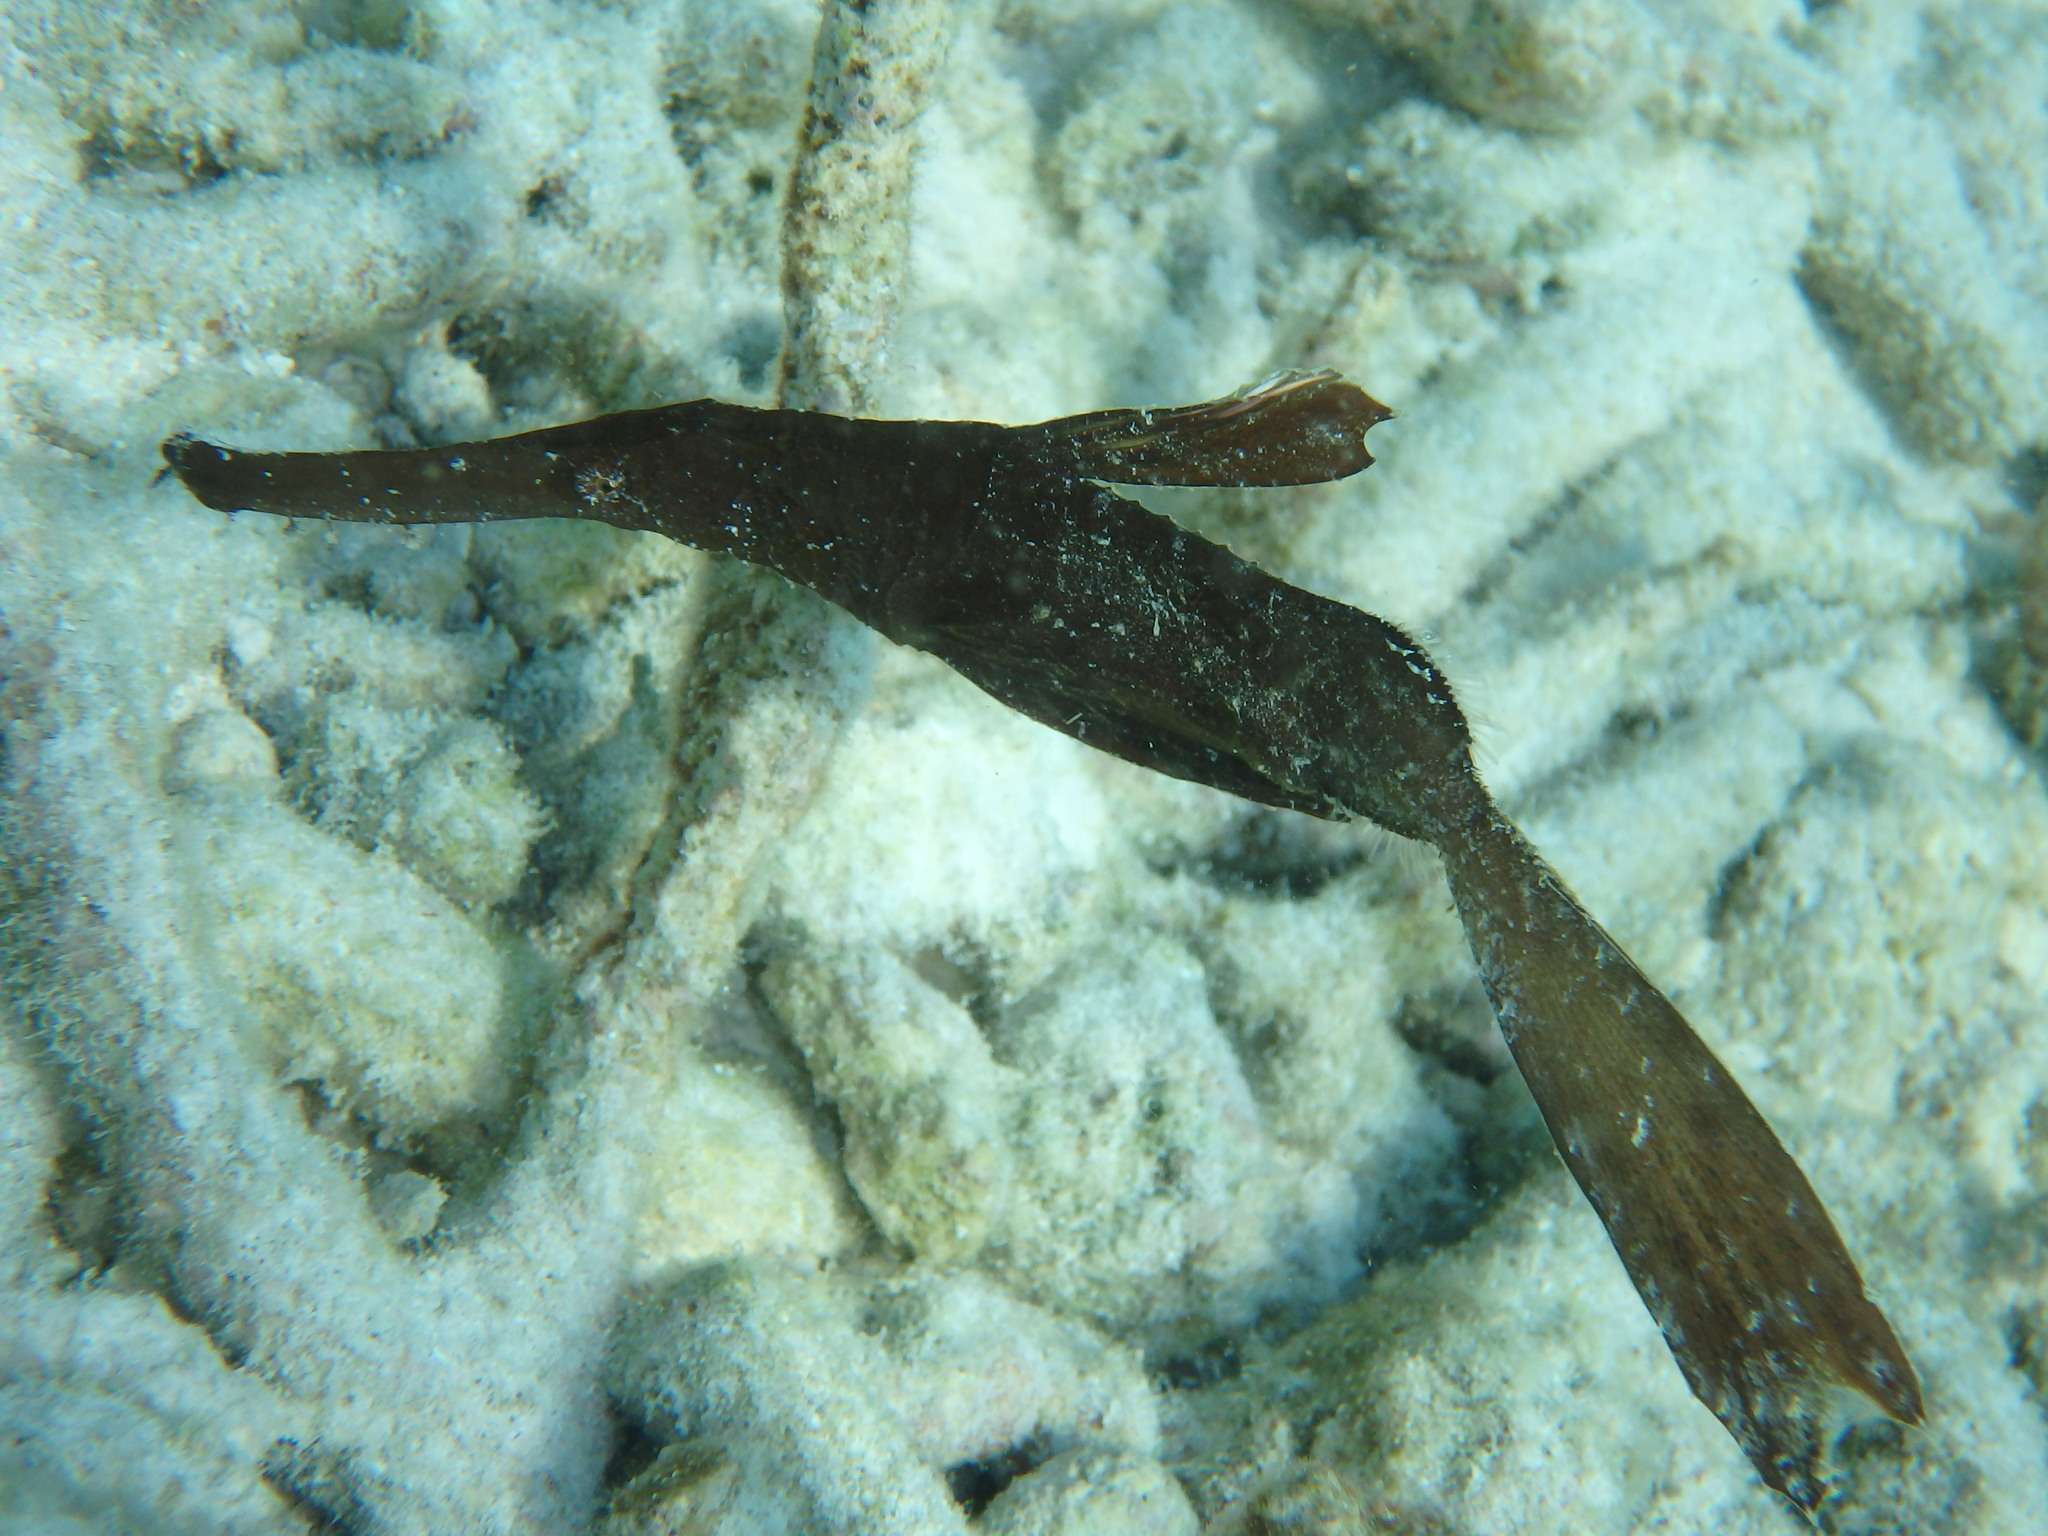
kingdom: Animalia
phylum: Chordata
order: Syngnathiformes
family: Solenostomidae
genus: Solenostomus
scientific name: Solenostomus cyanopterus
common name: Blue-finned ghost pipefish
